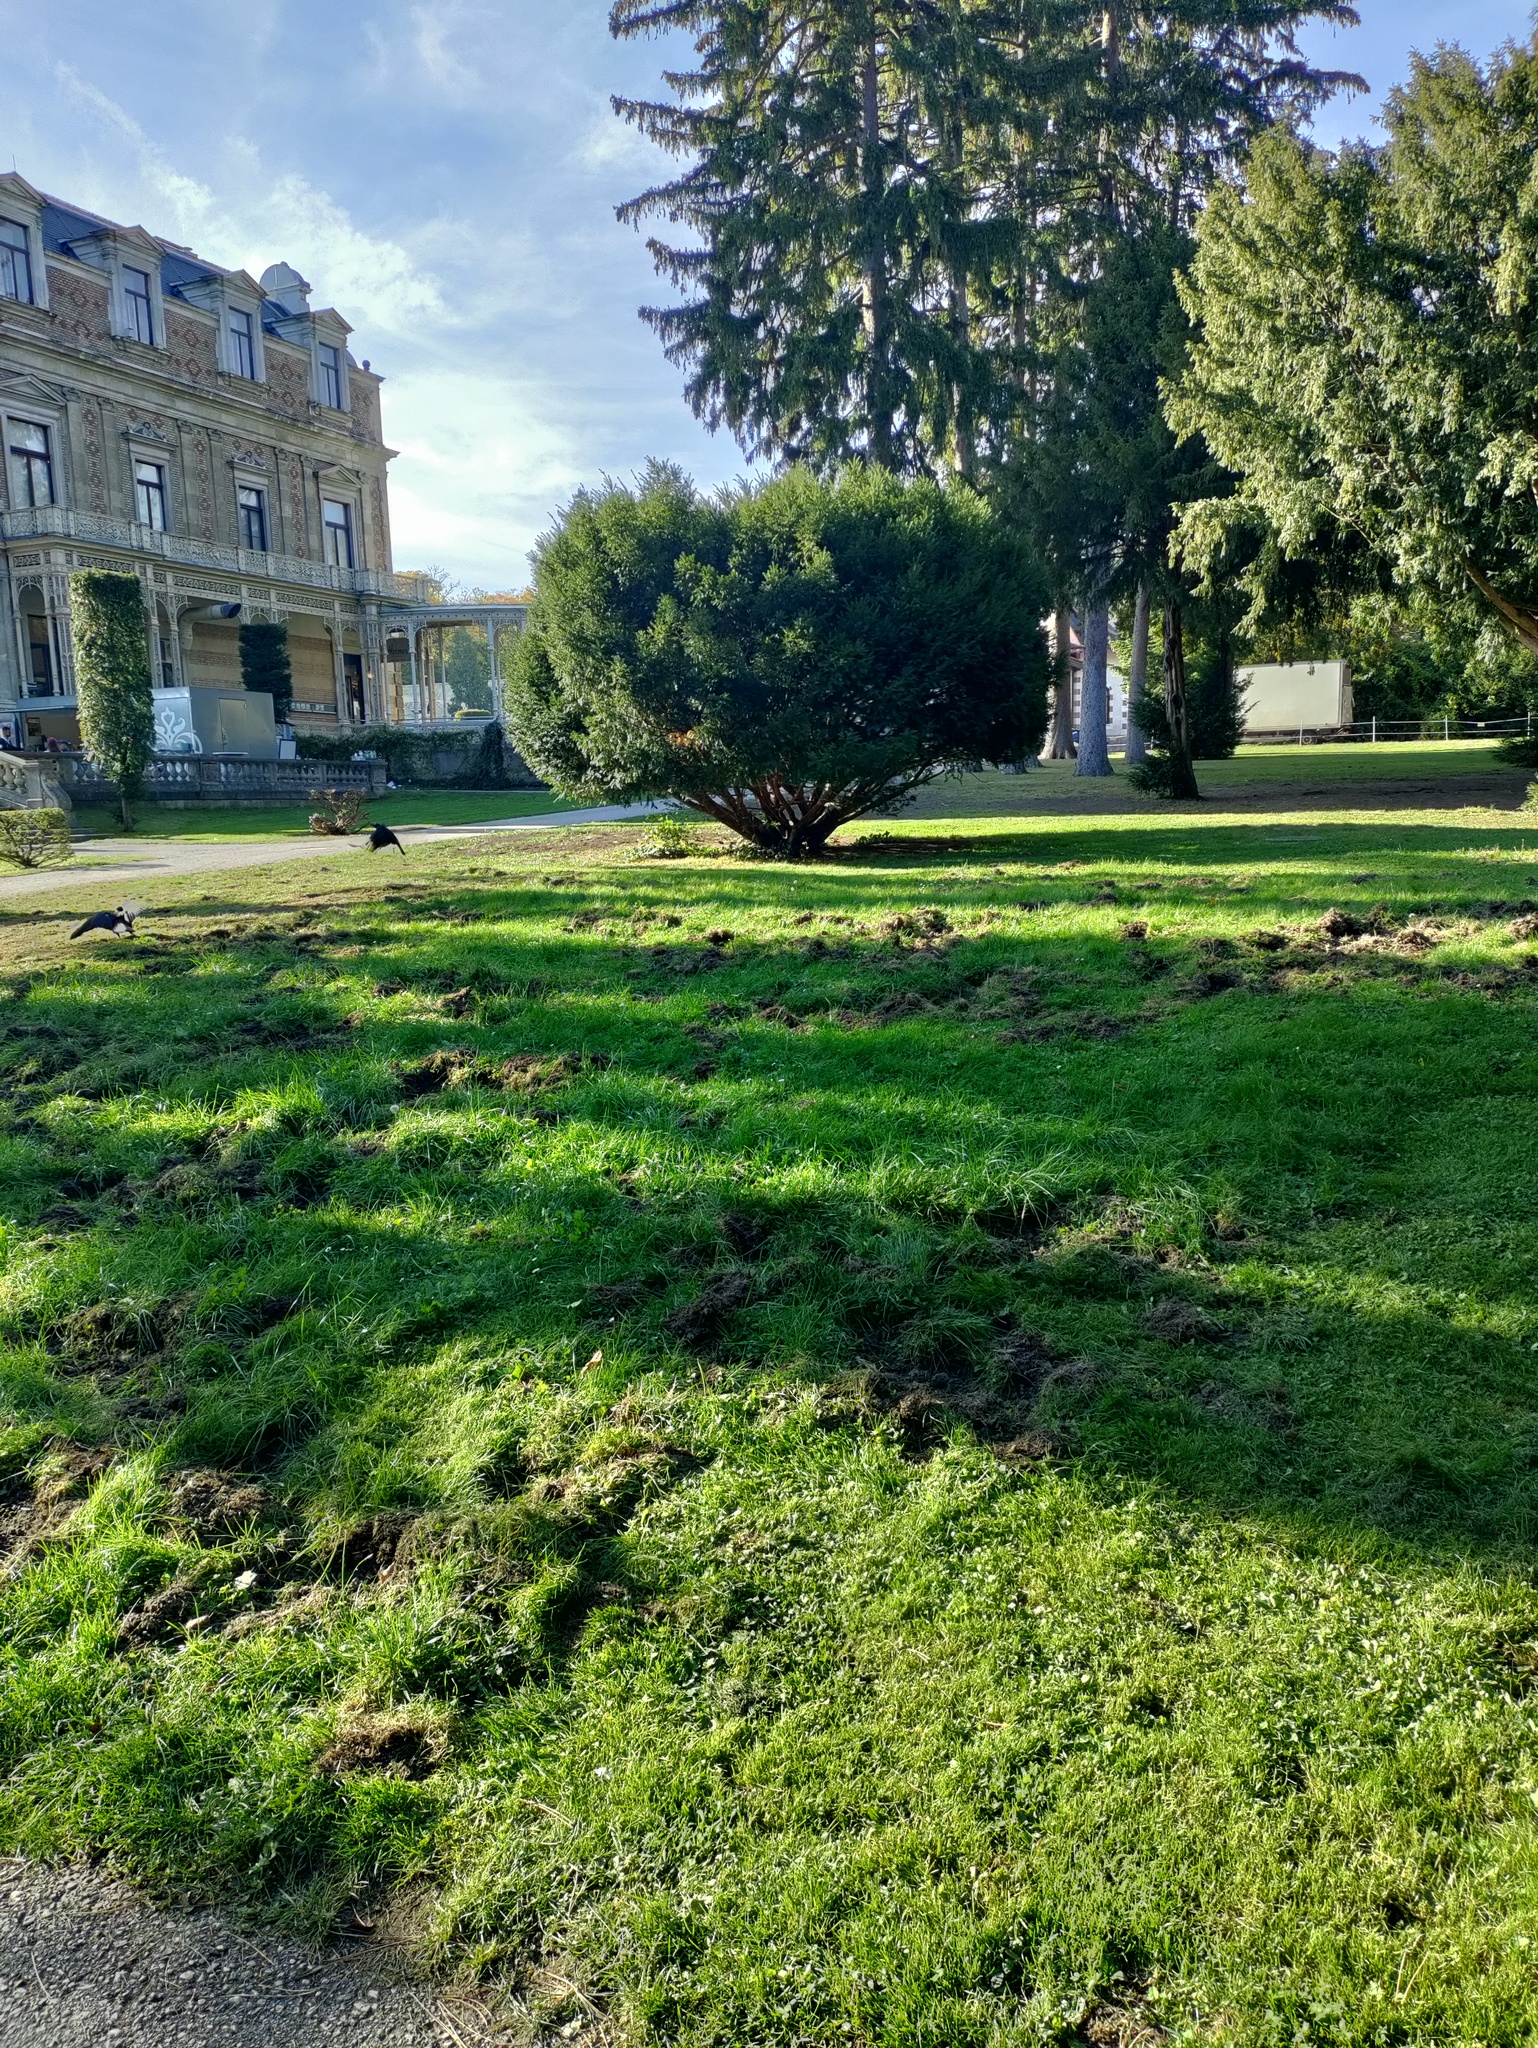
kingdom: Animalia
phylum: Chordata
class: Mammalia
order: Artiodactyla
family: Suidae
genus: Sus
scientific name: Sus scrofa
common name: Wild boar
